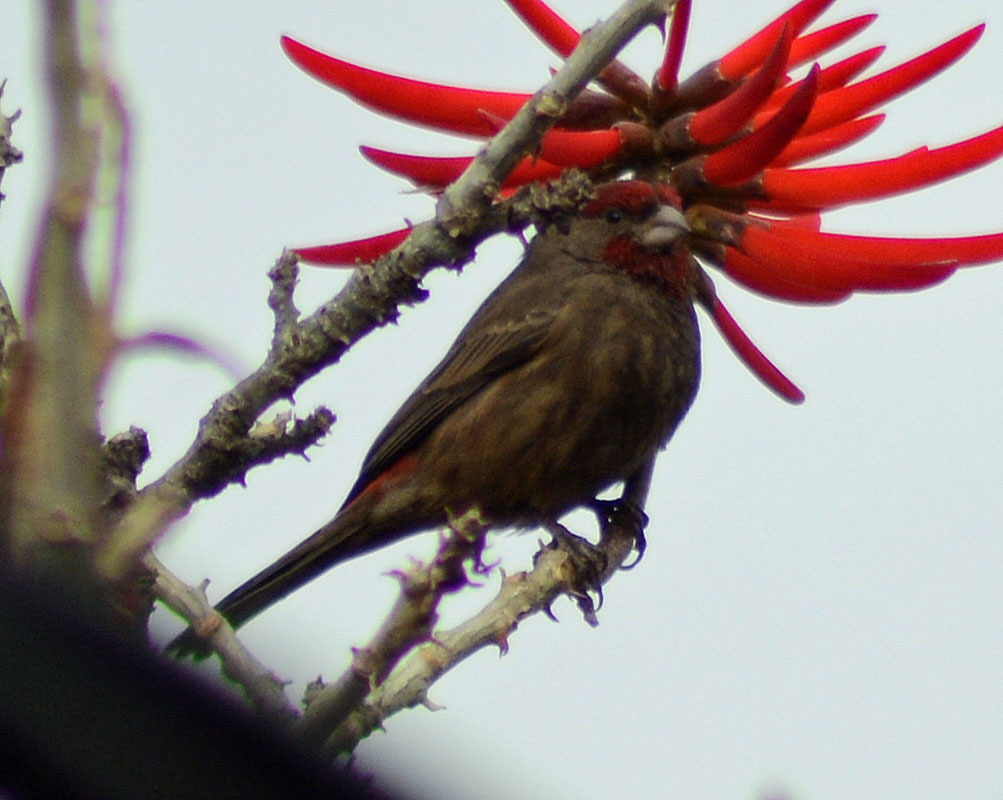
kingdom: Animalia
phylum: Chordata
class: Aves
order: Passeriformes
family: Fringillidae
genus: Haemorhous
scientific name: Haemorhous mexicanus
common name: House finch
